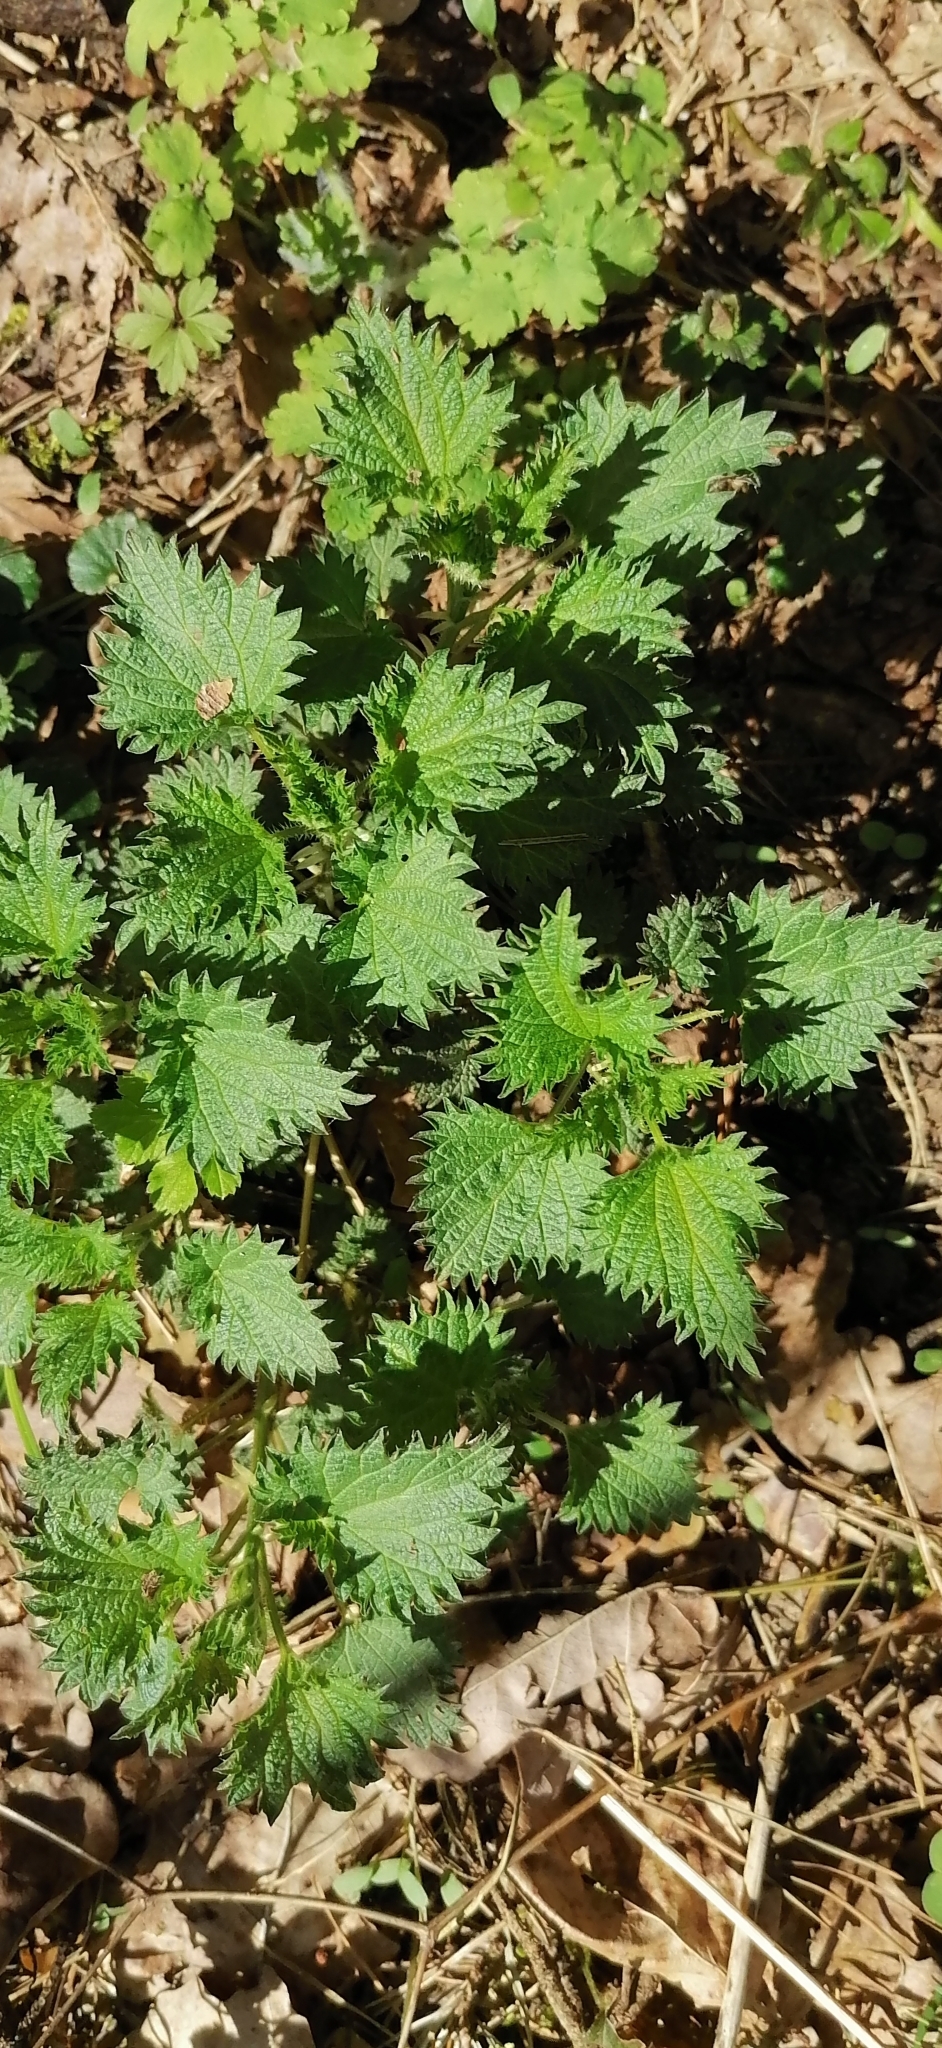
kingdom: Plantae
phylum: Tracheophyta
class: Magnoliopsida
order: Rosales
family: Urticaceae
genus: Urtica
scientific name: Urtica dioica
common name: Common nettle
